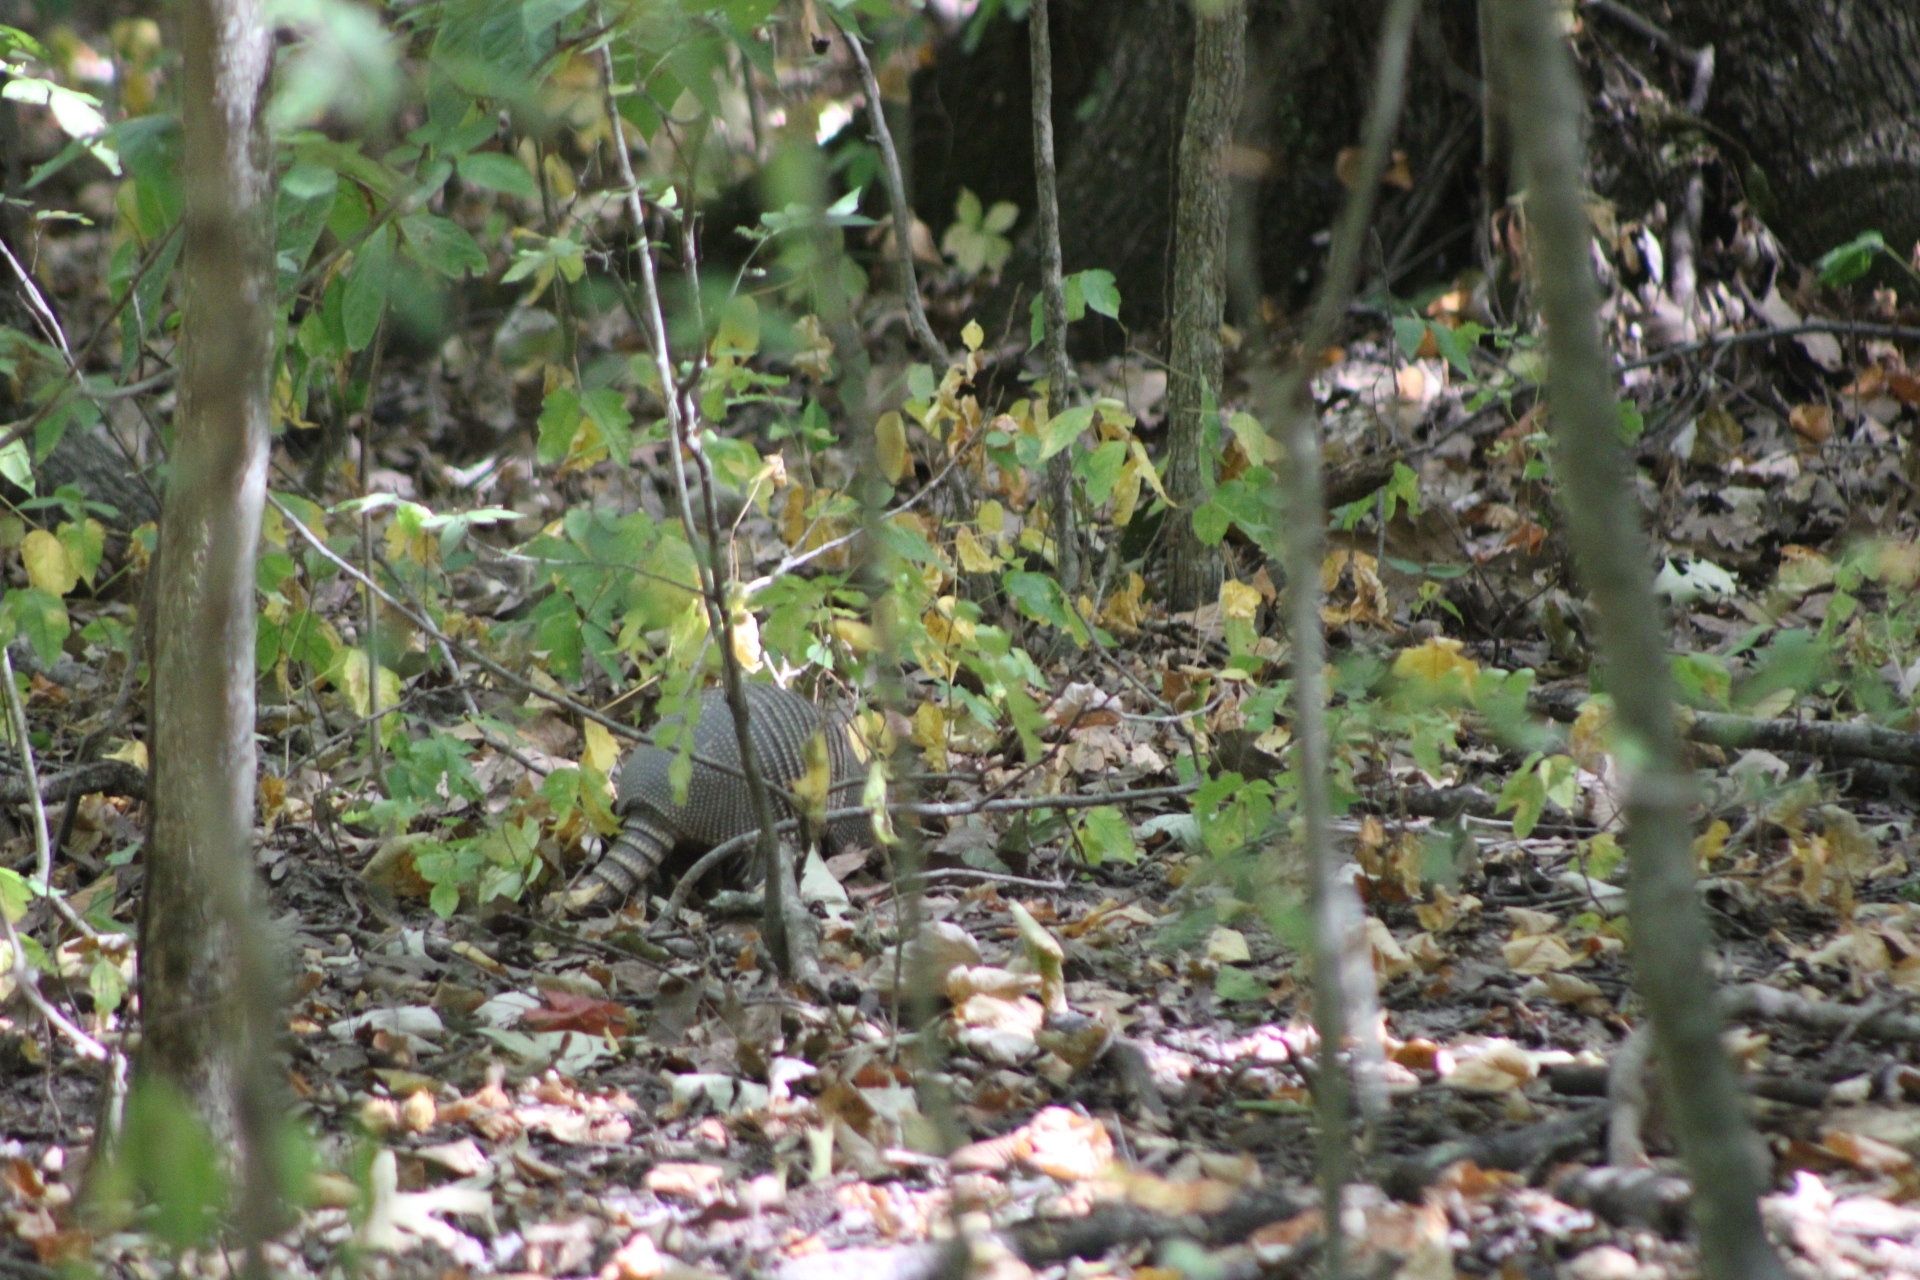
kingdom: Animalia
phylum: Chordata
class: Mammalia
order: Cingulata
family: Dasypodidae
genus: Dasypus
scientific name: Dasypus novemcinctus
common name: Nine-banded armadillo
